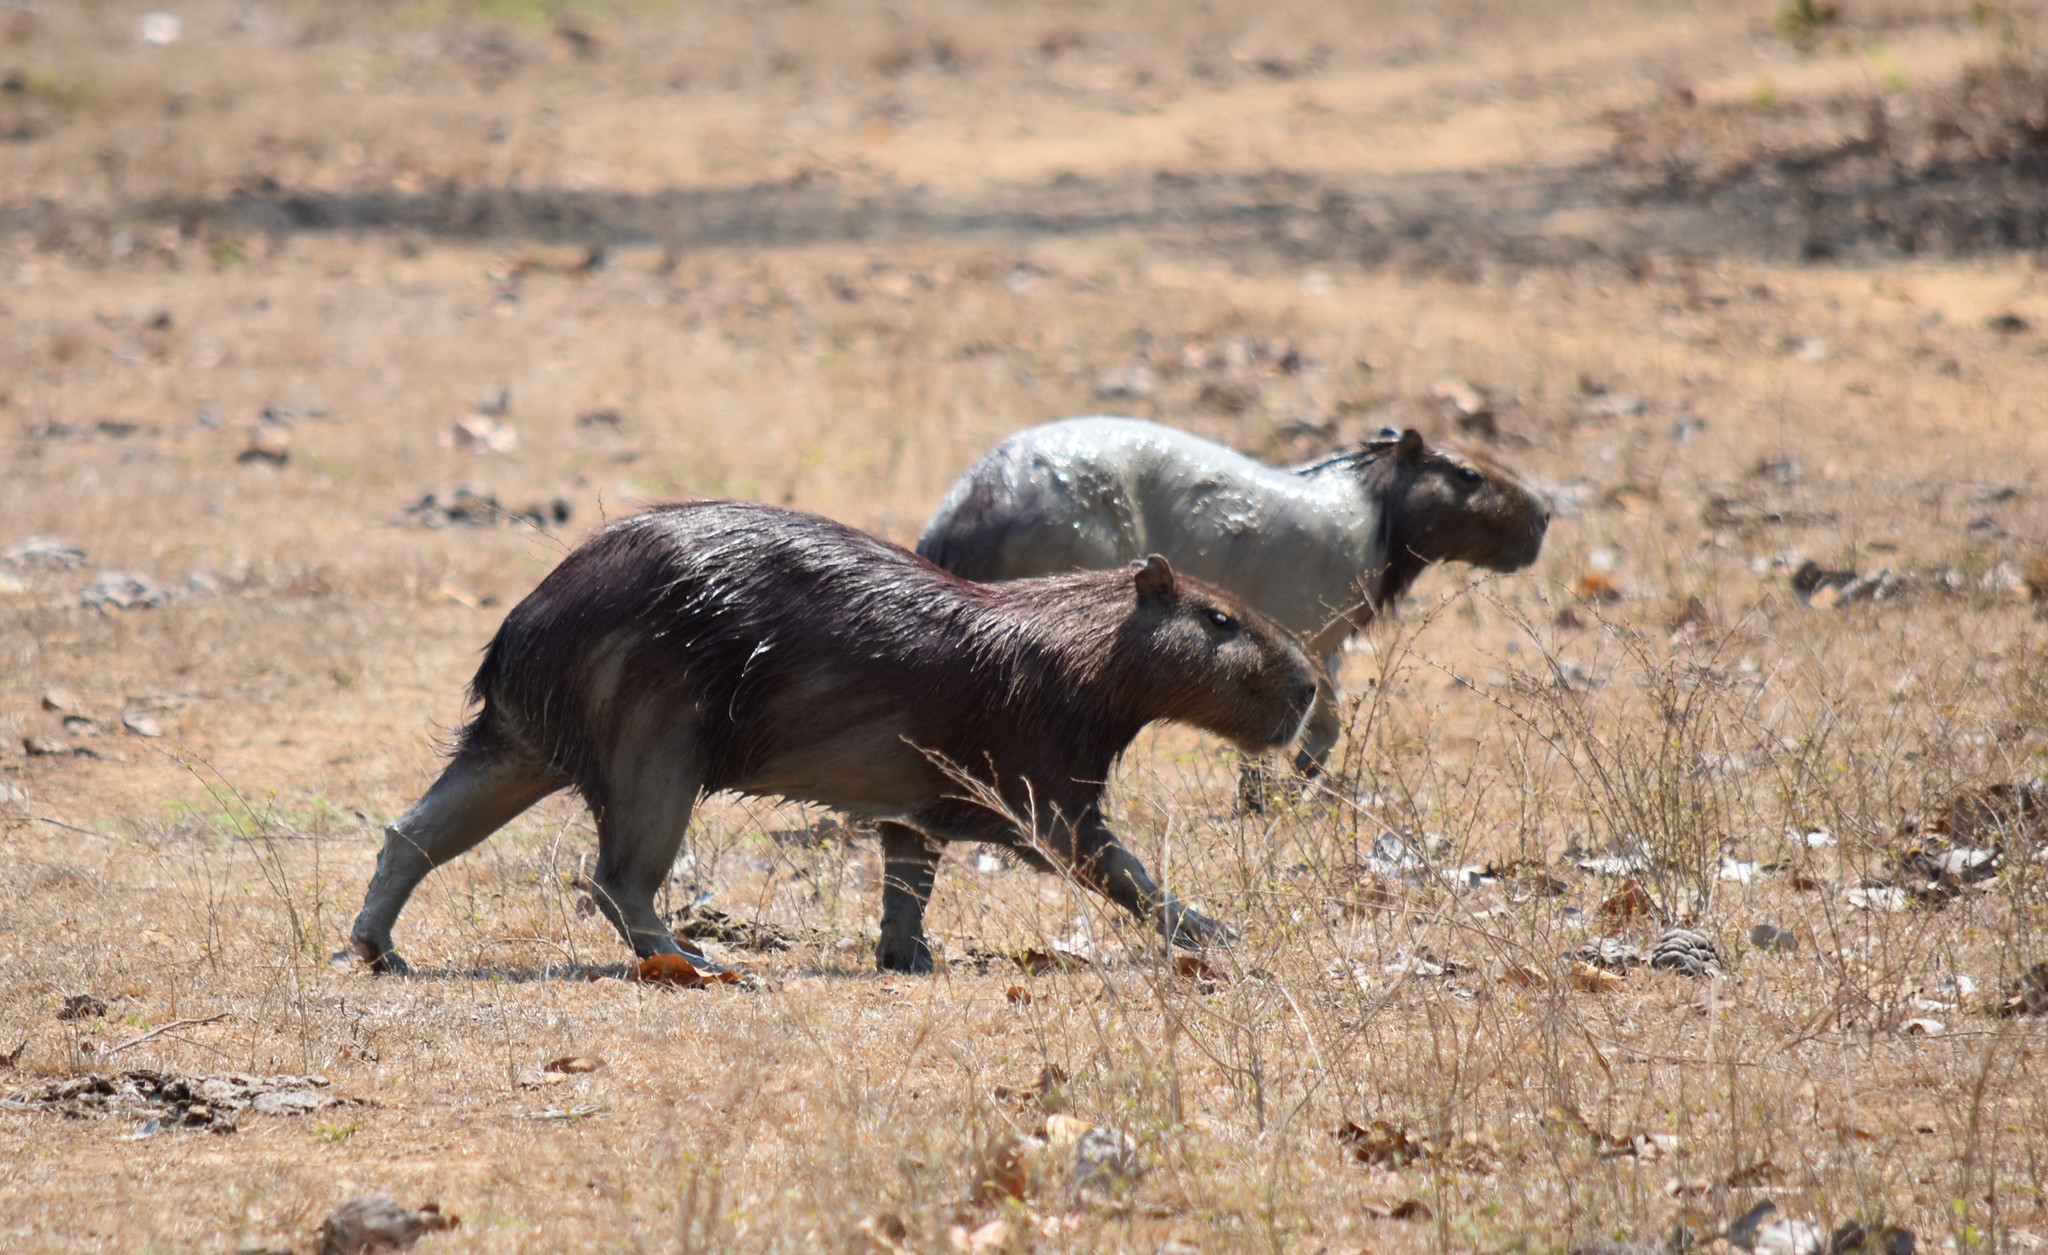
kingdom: Animalia
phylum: Chordata
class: Mammalia
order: Rodentia
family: Caviidae
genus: Hydrochoerus
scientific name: Hydrochoerus hydrochaeris
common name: Capybara
